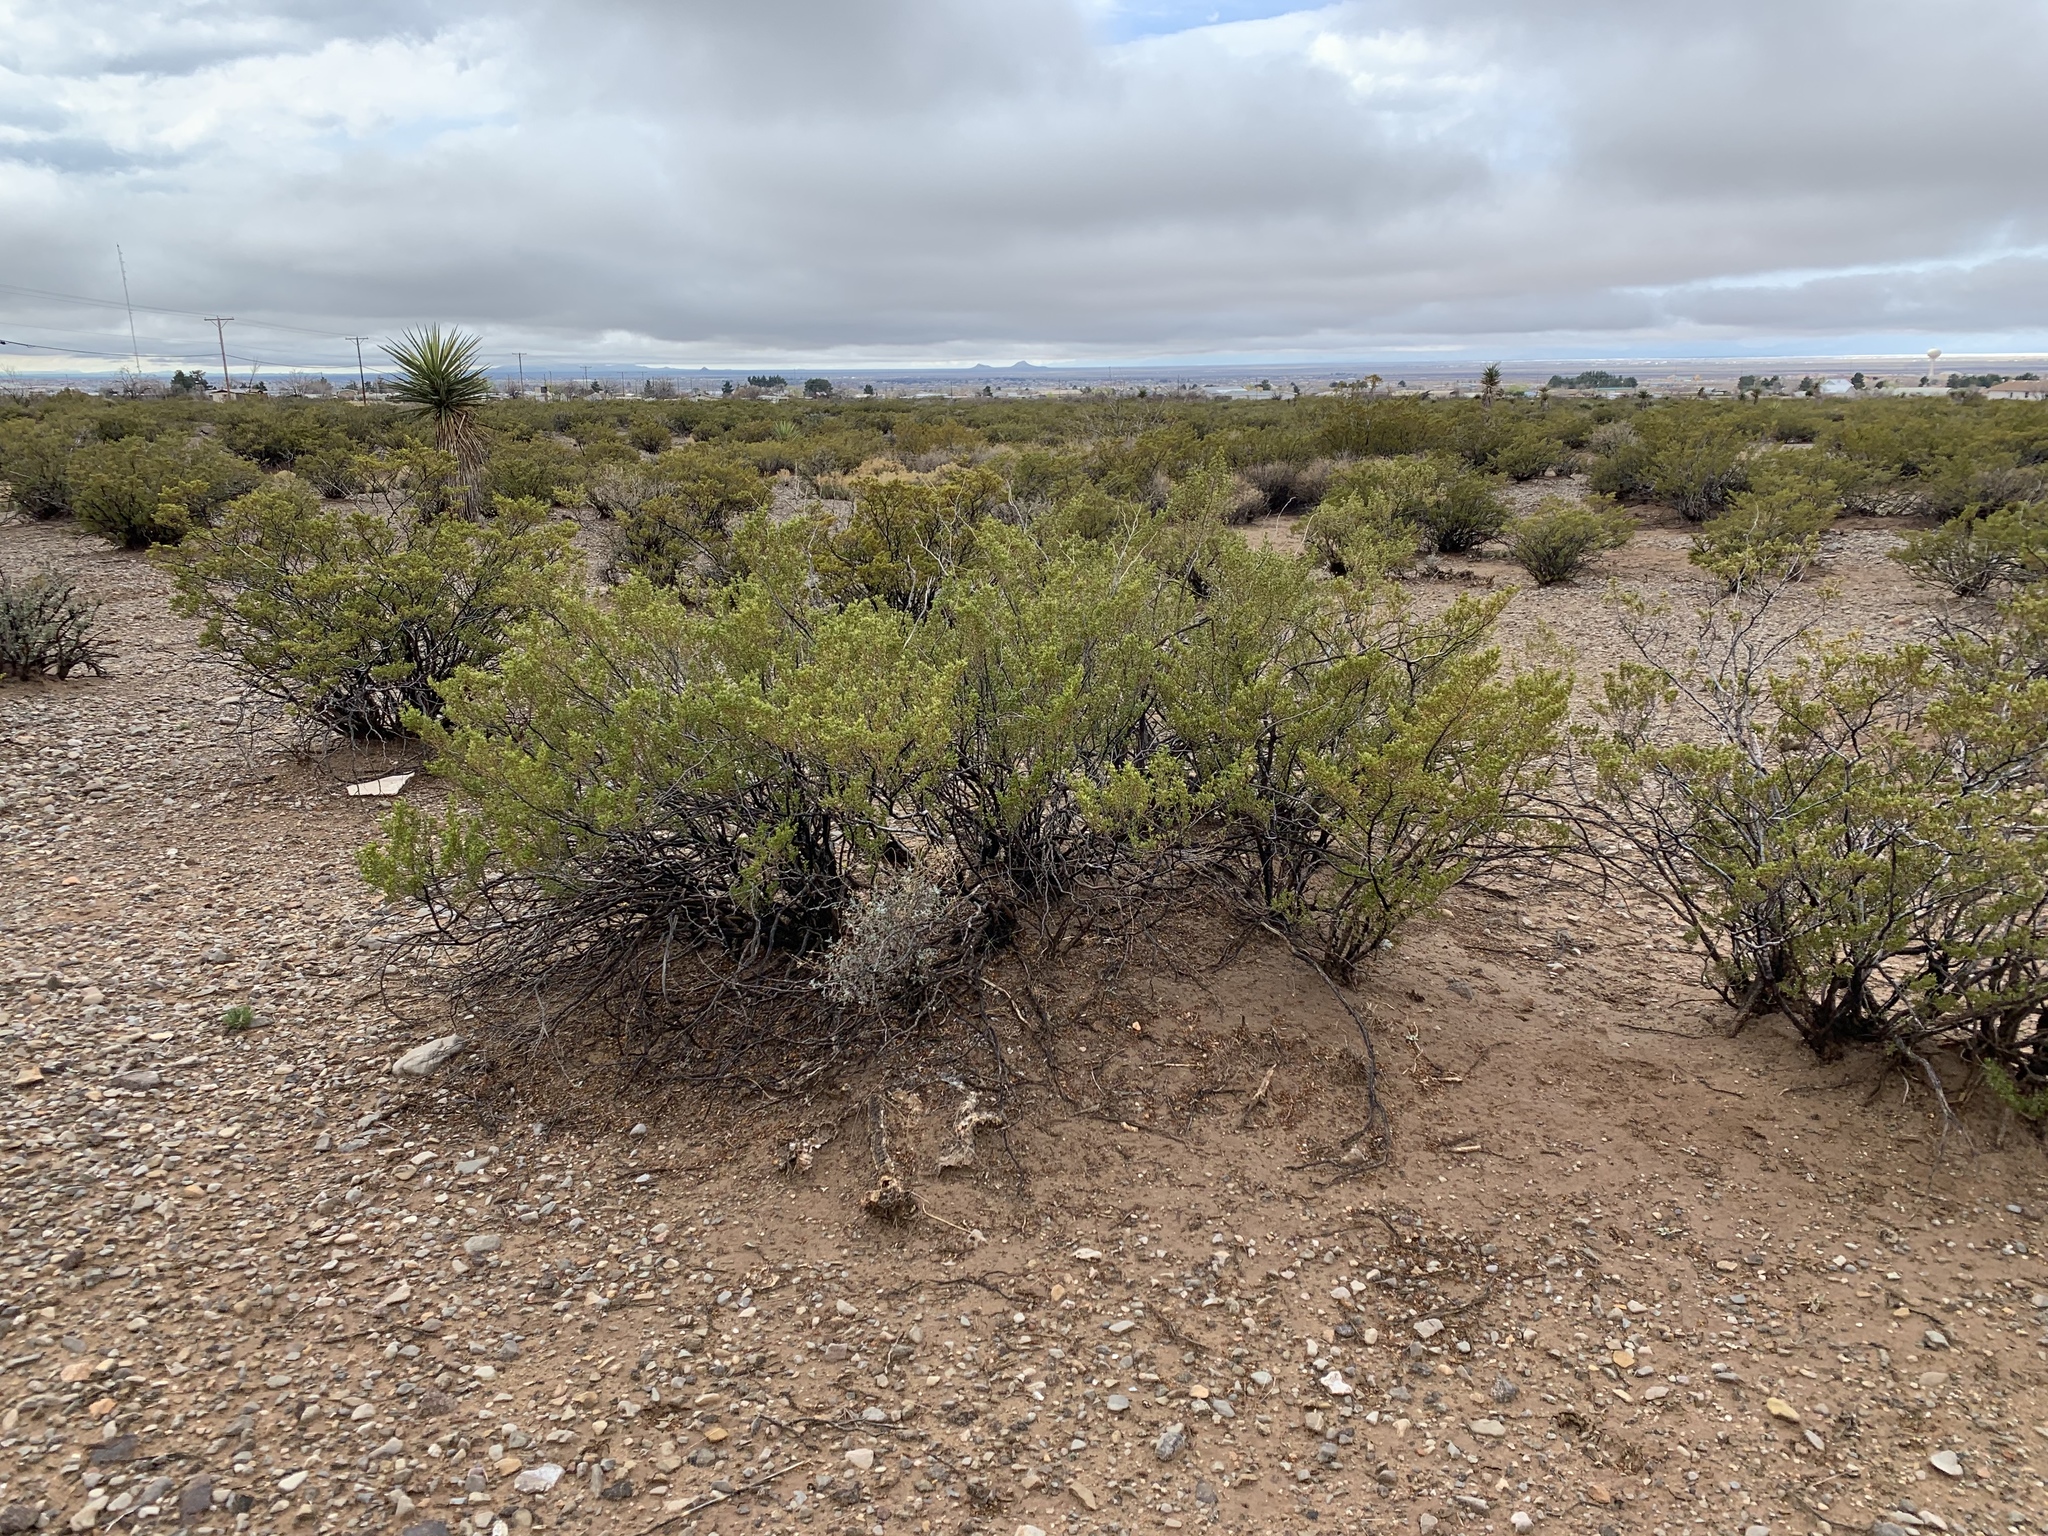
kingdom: Plantae
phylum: Tracheophyta
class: Magnoliopsida
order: Zygophyllales
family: Zygophyllaceae
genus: Larrea
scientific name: Larrea tridentata
